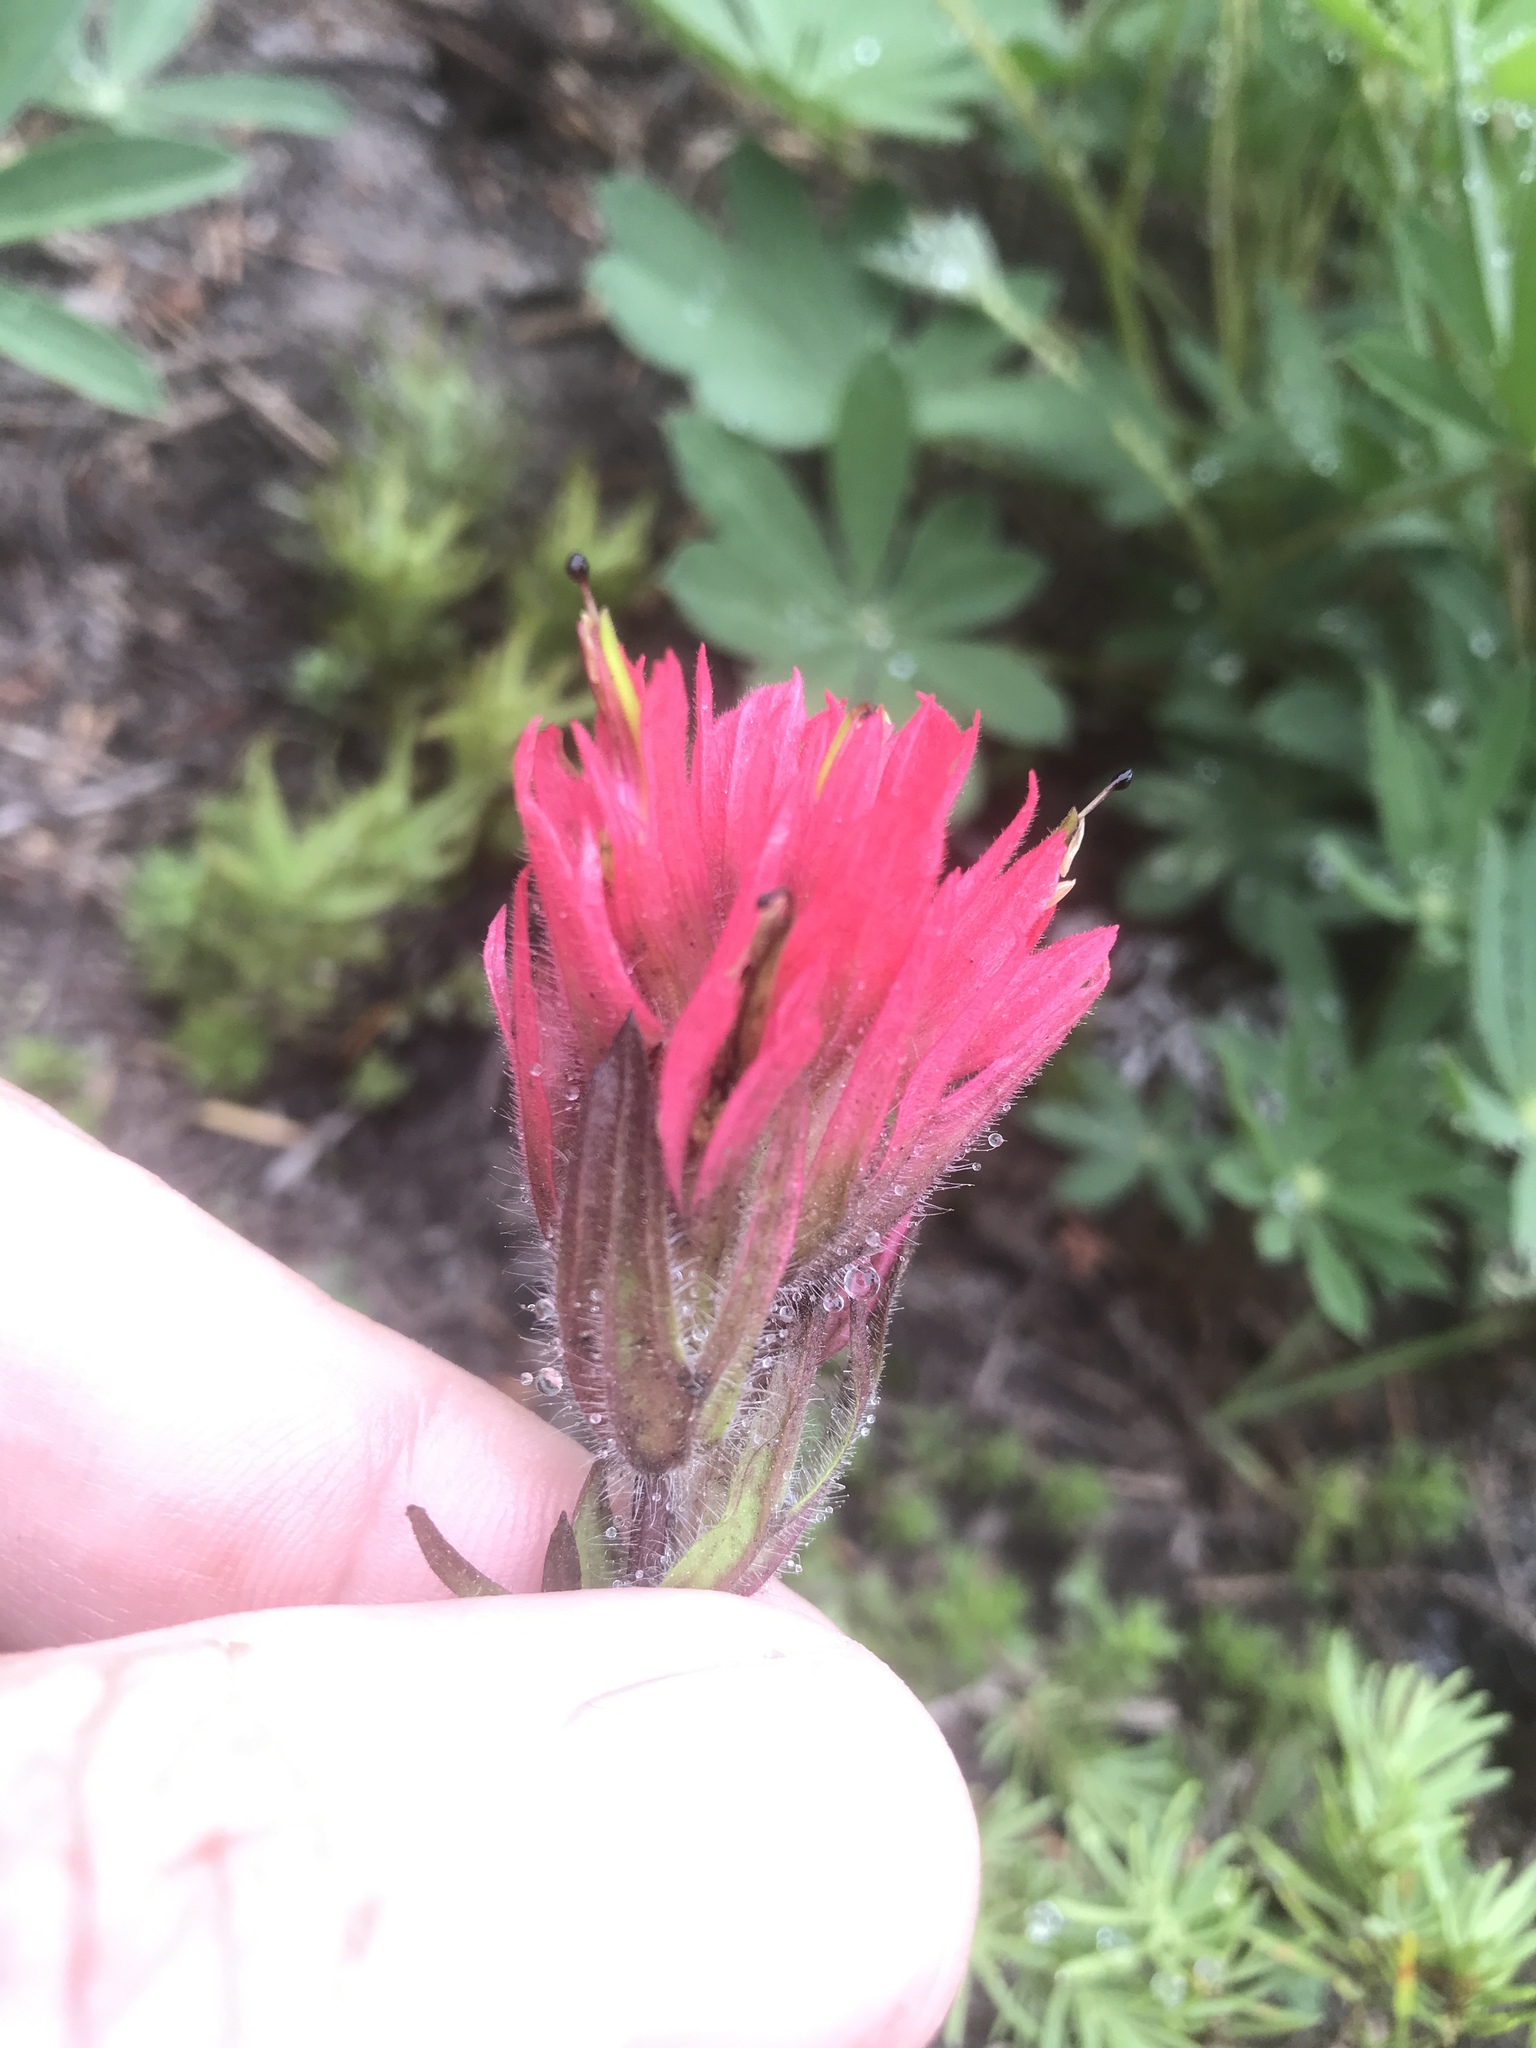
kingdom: Plantae
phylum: Tracheophyta
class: Magnoliopsida
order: Lamiales
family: Orobanchaceae
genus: Castilleja
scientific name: Castilleja parviflora
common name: Mountain paintbrush
